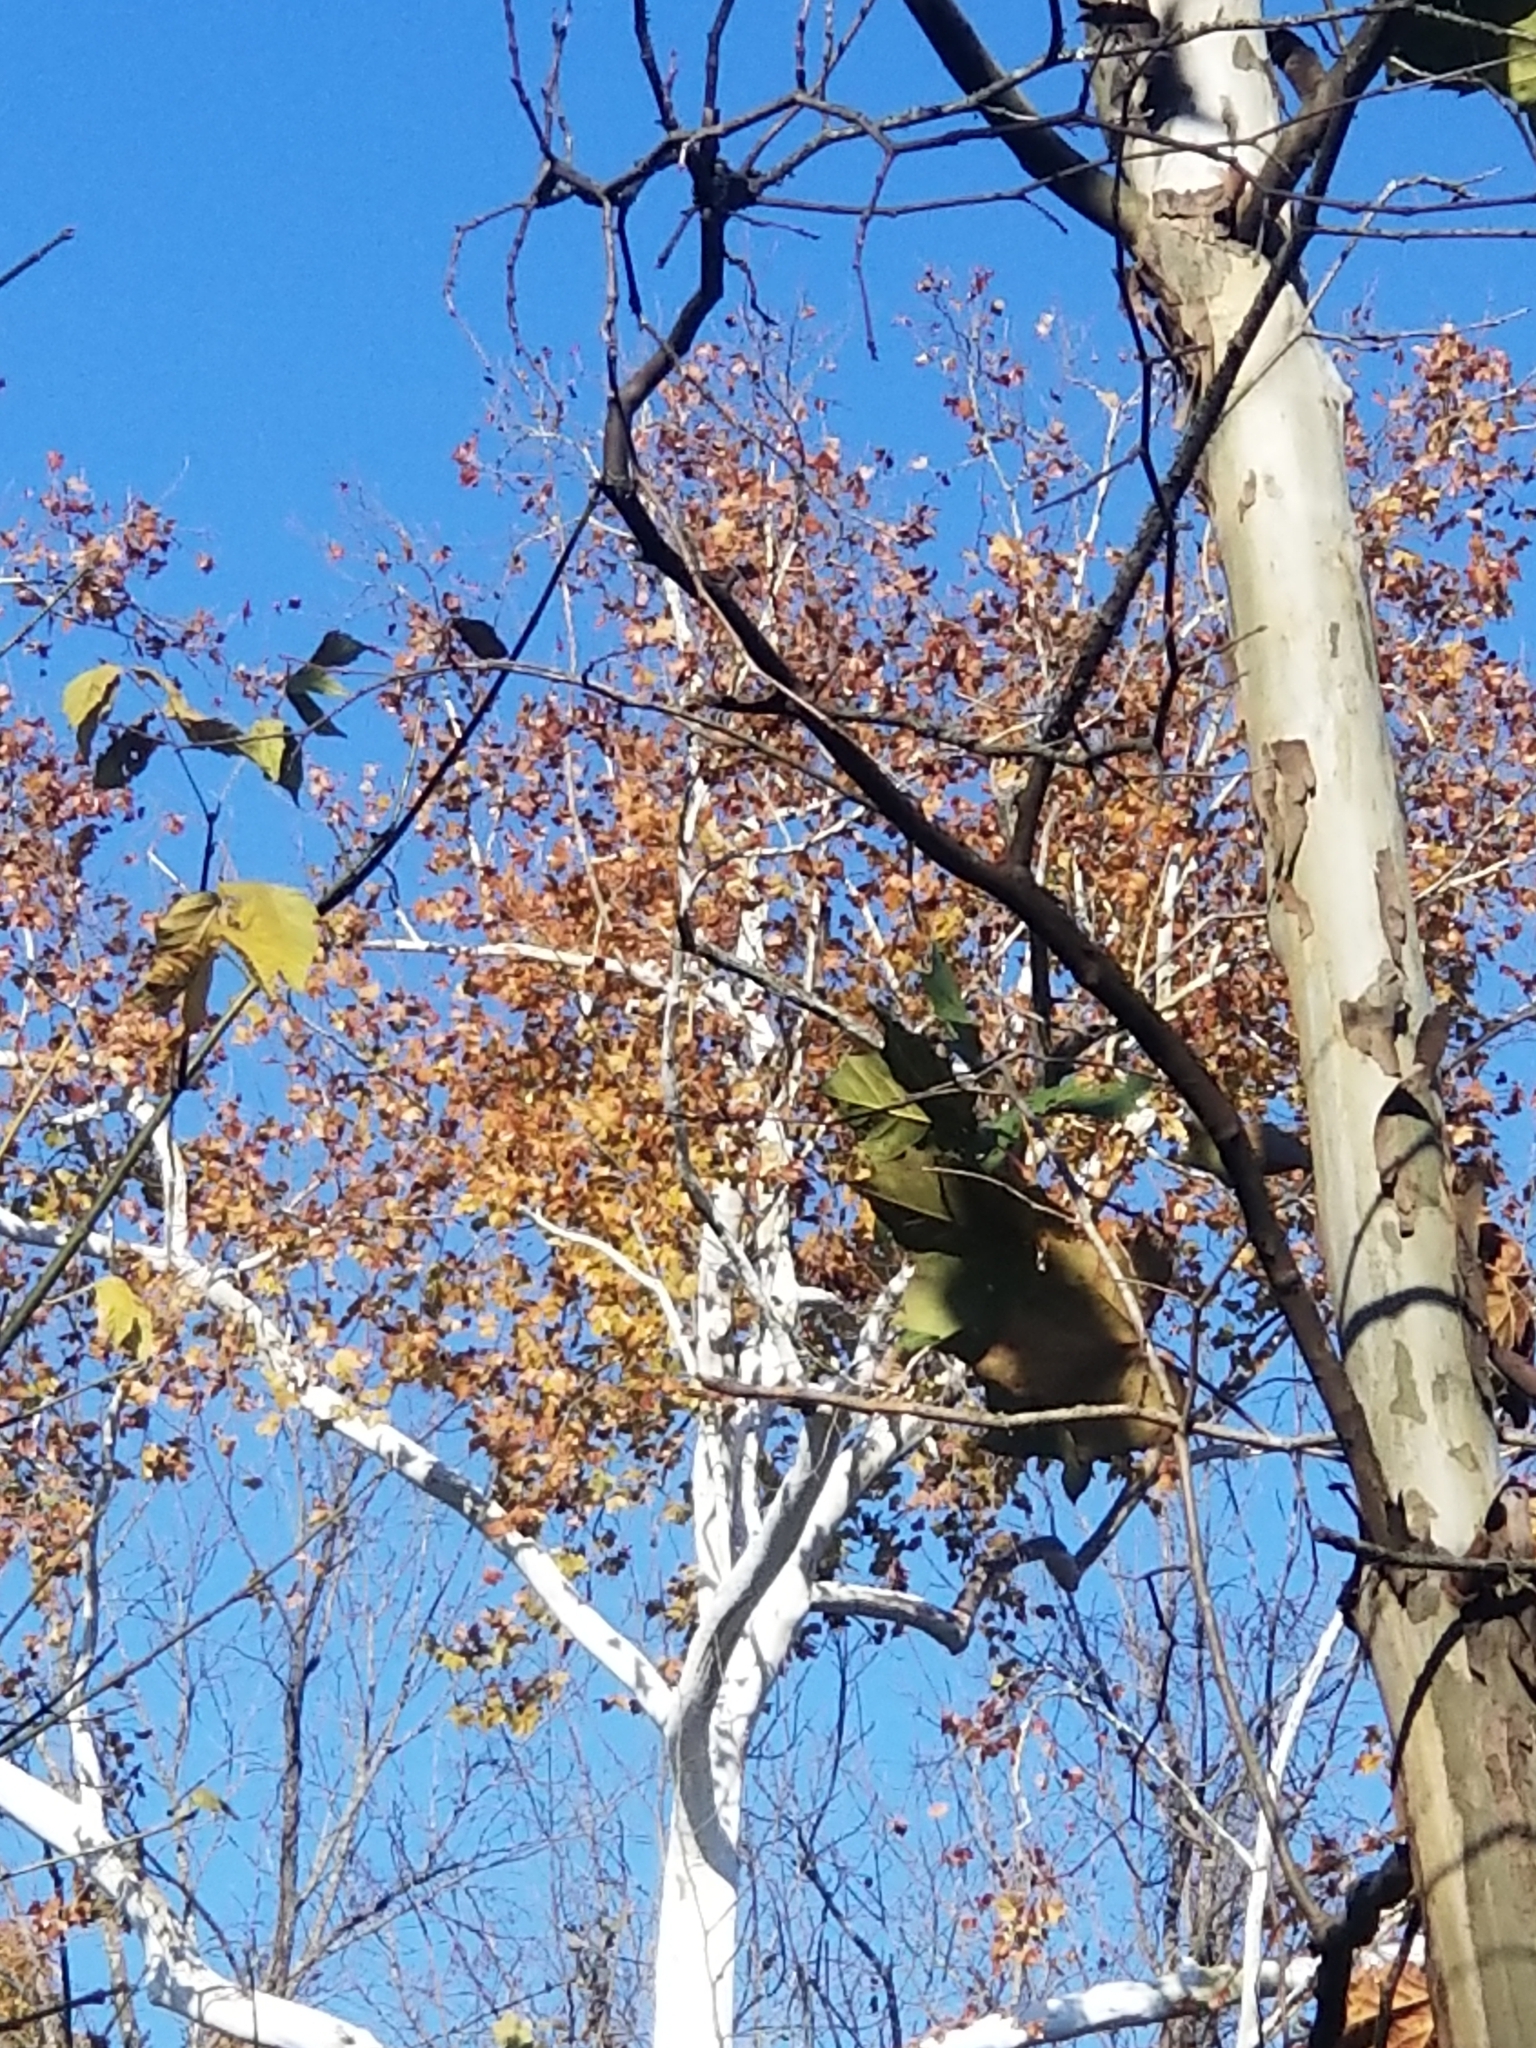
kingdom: Plantae
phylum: Tracheophyta
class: Magnoliopsida
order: Proteales
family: Platanaceae
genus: Platanus
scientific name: Platanus occidentalis
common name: American sycamore
